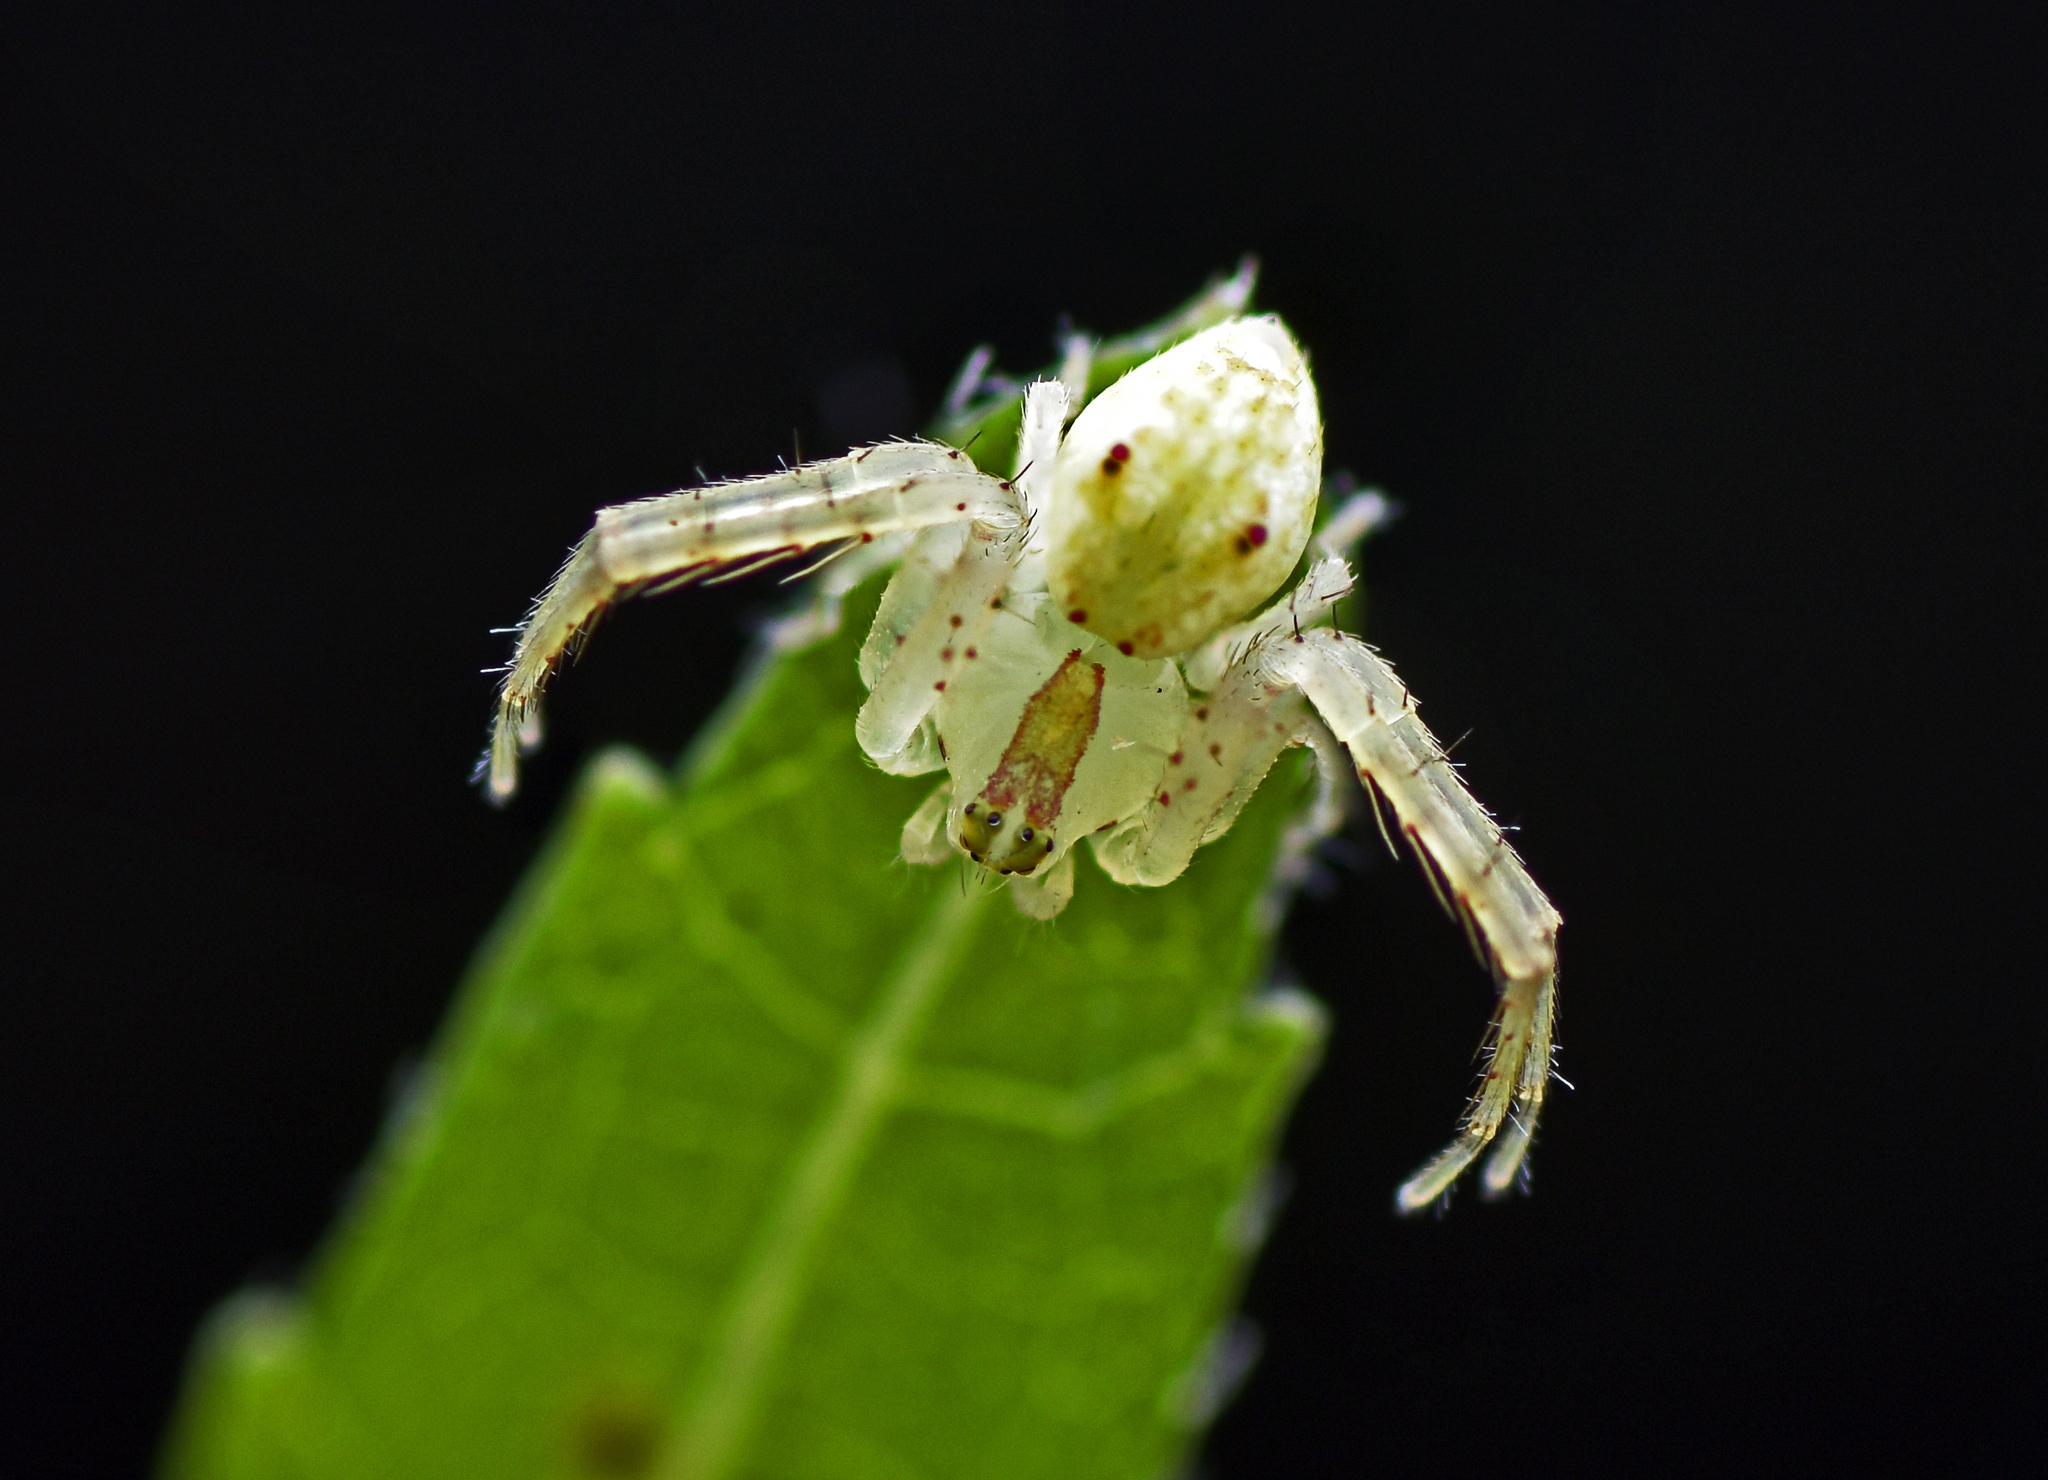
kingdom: Animalia
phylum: Arthropoda
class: Arachnida
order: Araneae
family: Thomisidae
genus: Sidymella
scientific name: Sidymella rubrosignata
